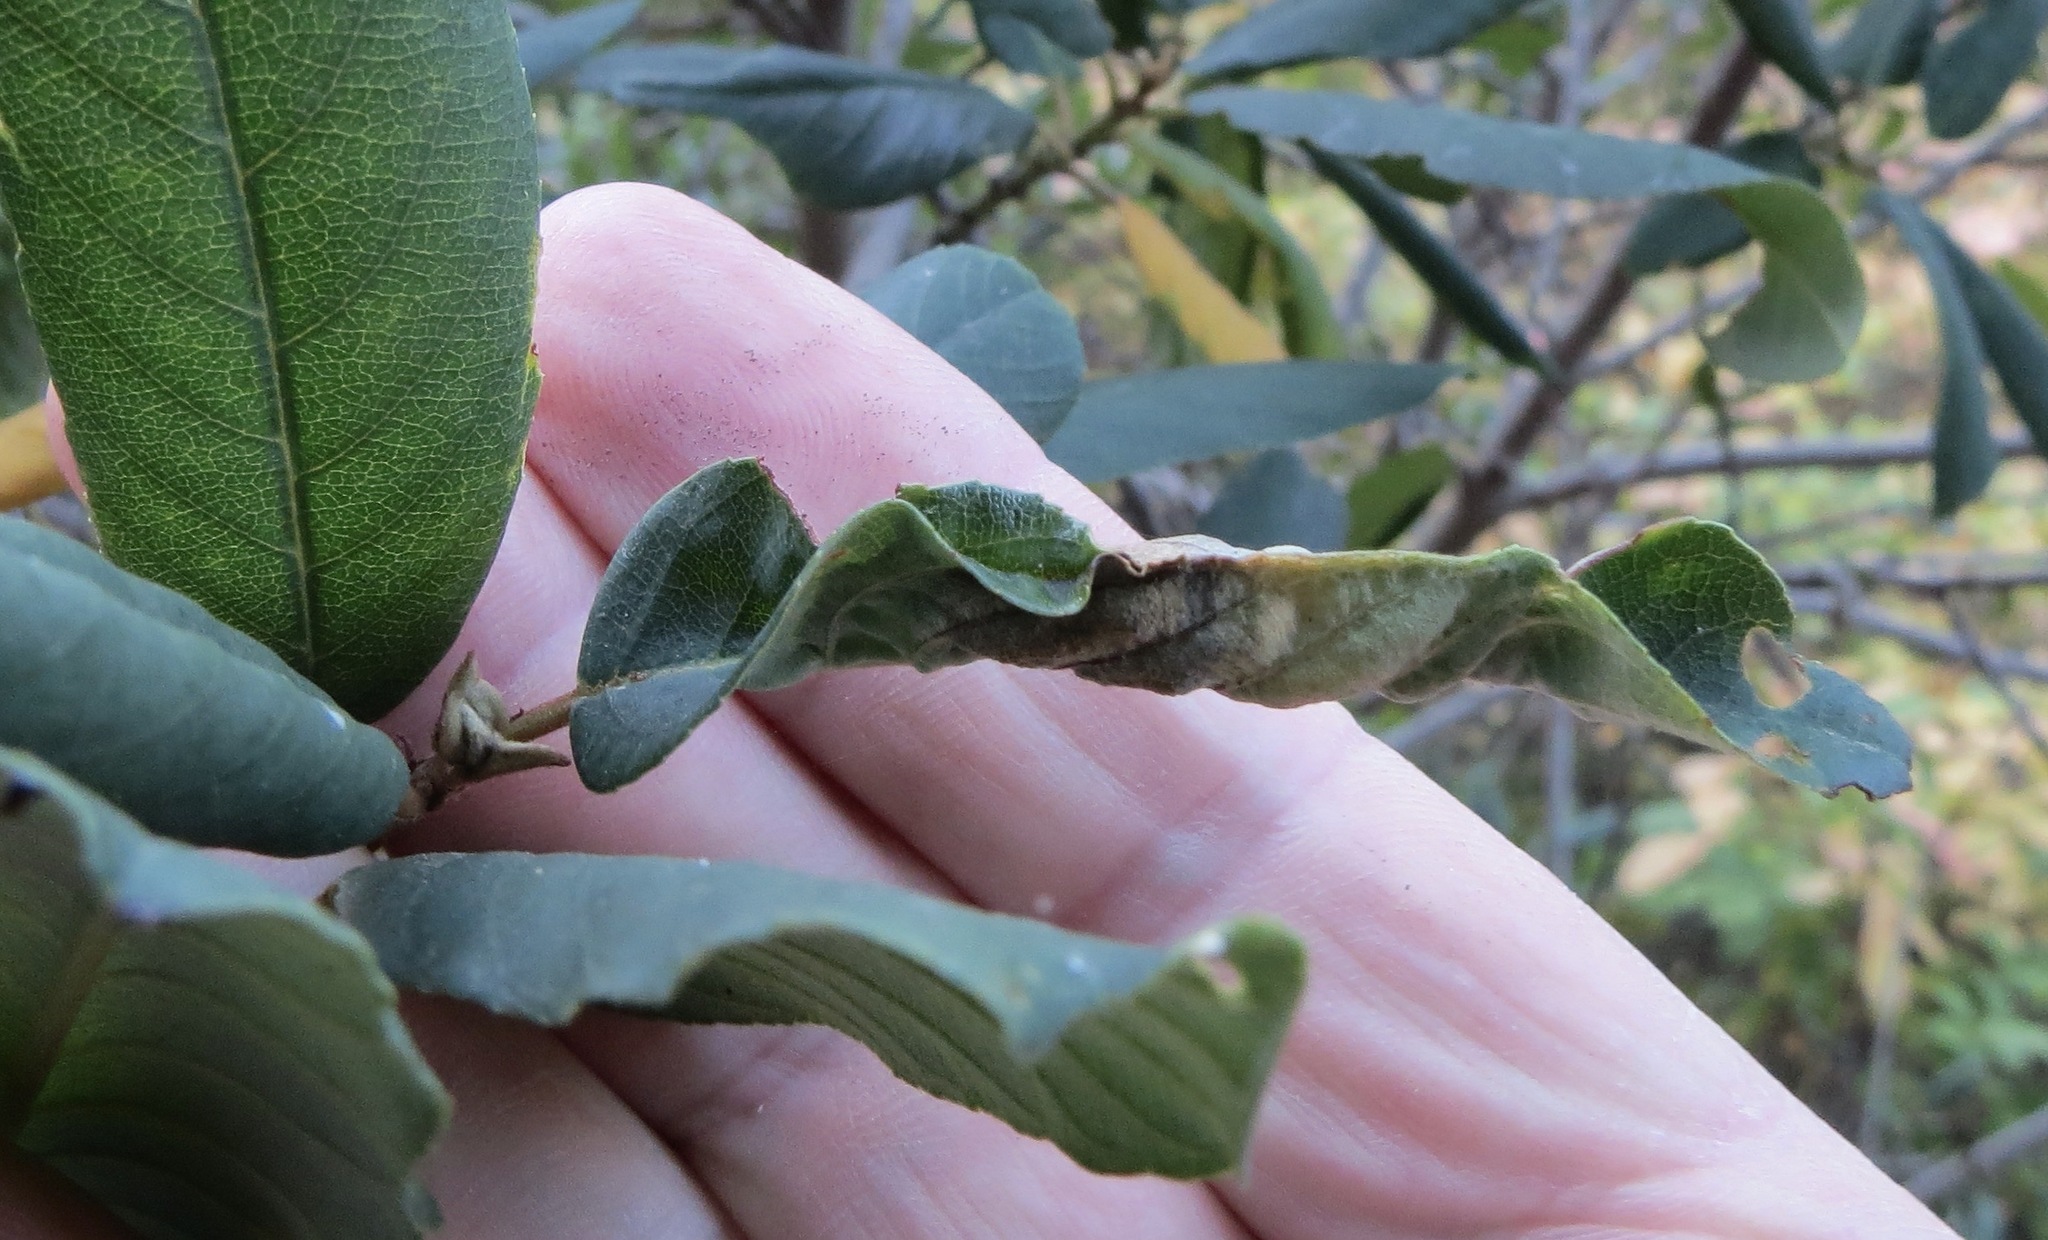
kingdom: Animalia
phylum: Arthropoda
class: Insecta
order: Lepidoptera
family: Cosmopterigidae
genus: Sorhagenia
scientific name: Sorhagenia nimbosus
